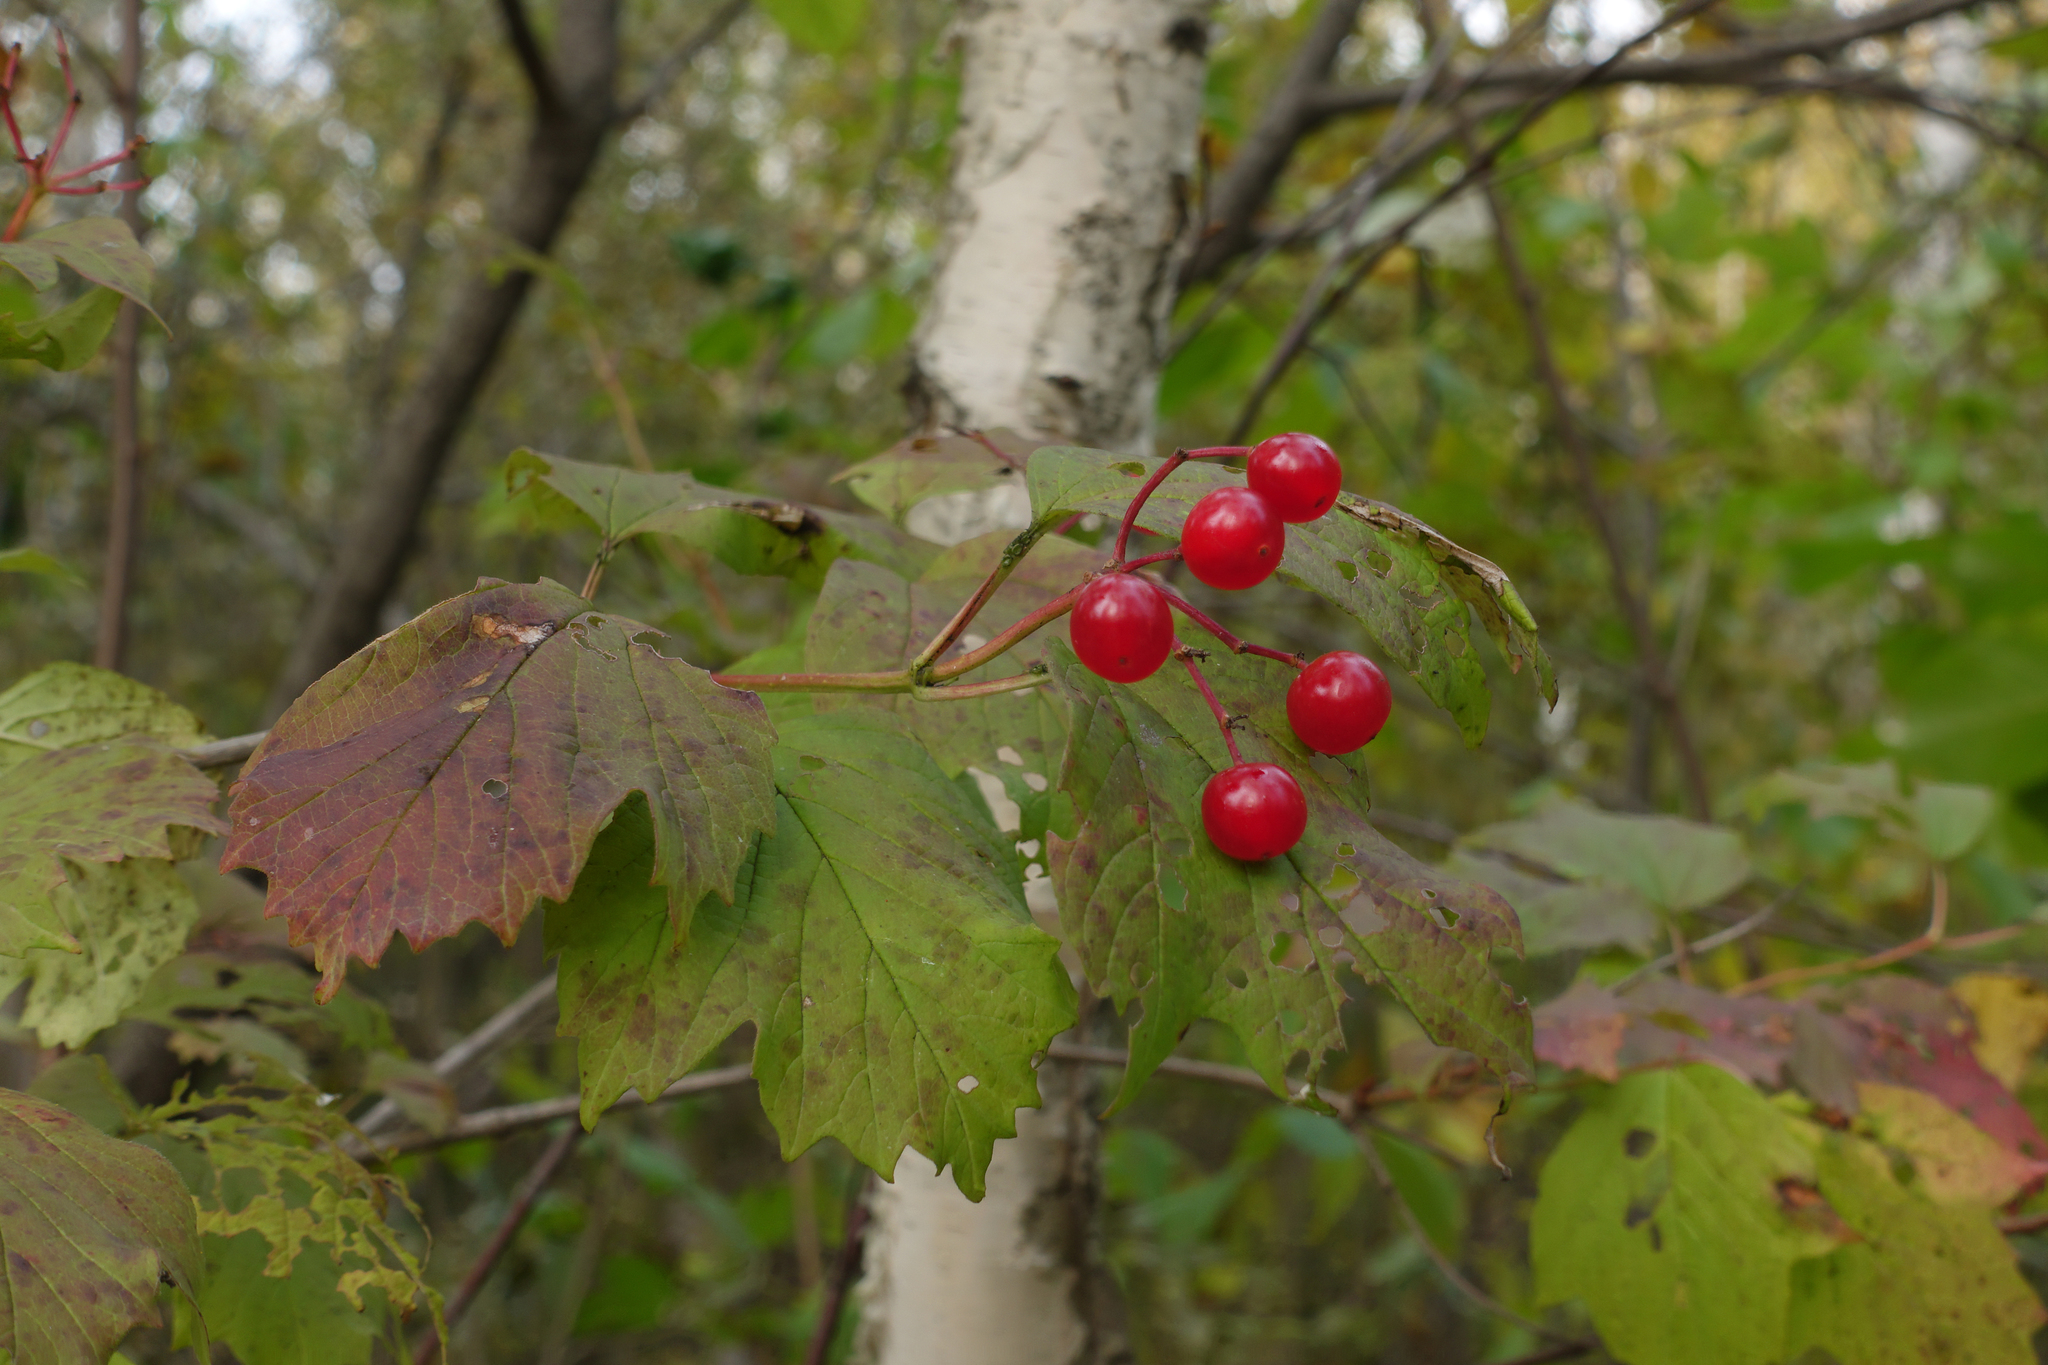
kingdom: Plantae
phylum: Tracheophyta
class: Magnoliopsida
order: Dipsacales
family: Viburnaceae
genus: Viburnum
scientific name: Viburnum opulus
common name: Guelder-rose
